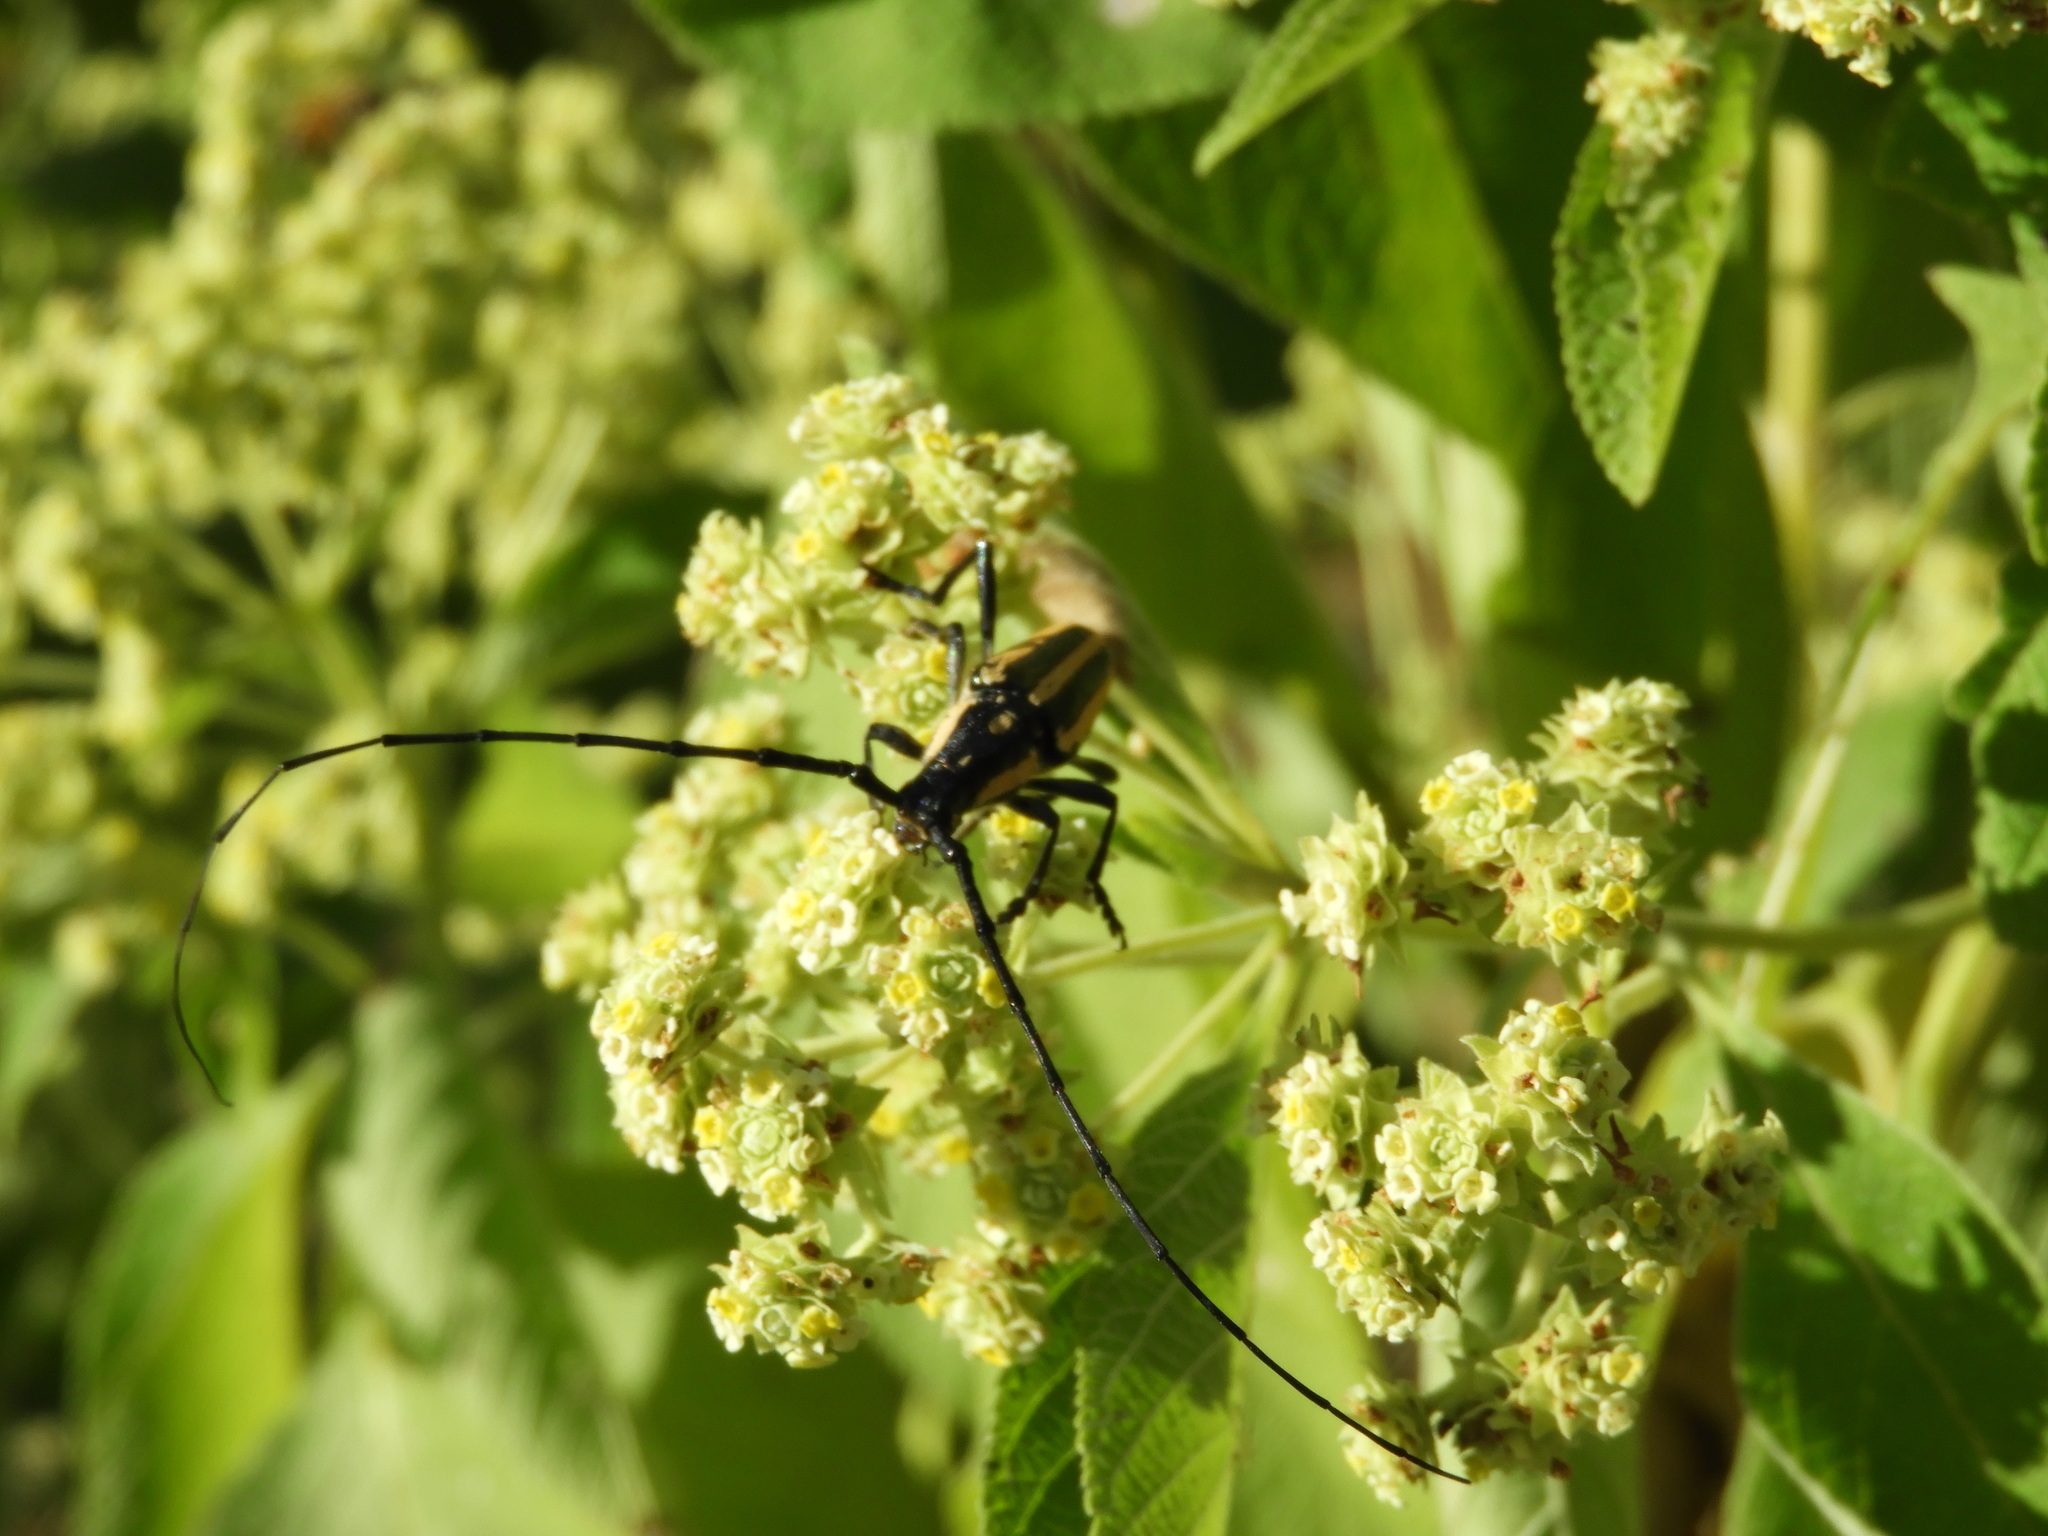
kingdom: Animalia
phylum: Arthropoda
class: Insecta
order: Coleoptera
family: Cerambycidae
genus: Sphaenothecus
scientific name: Sphaenothecus trilineatus
